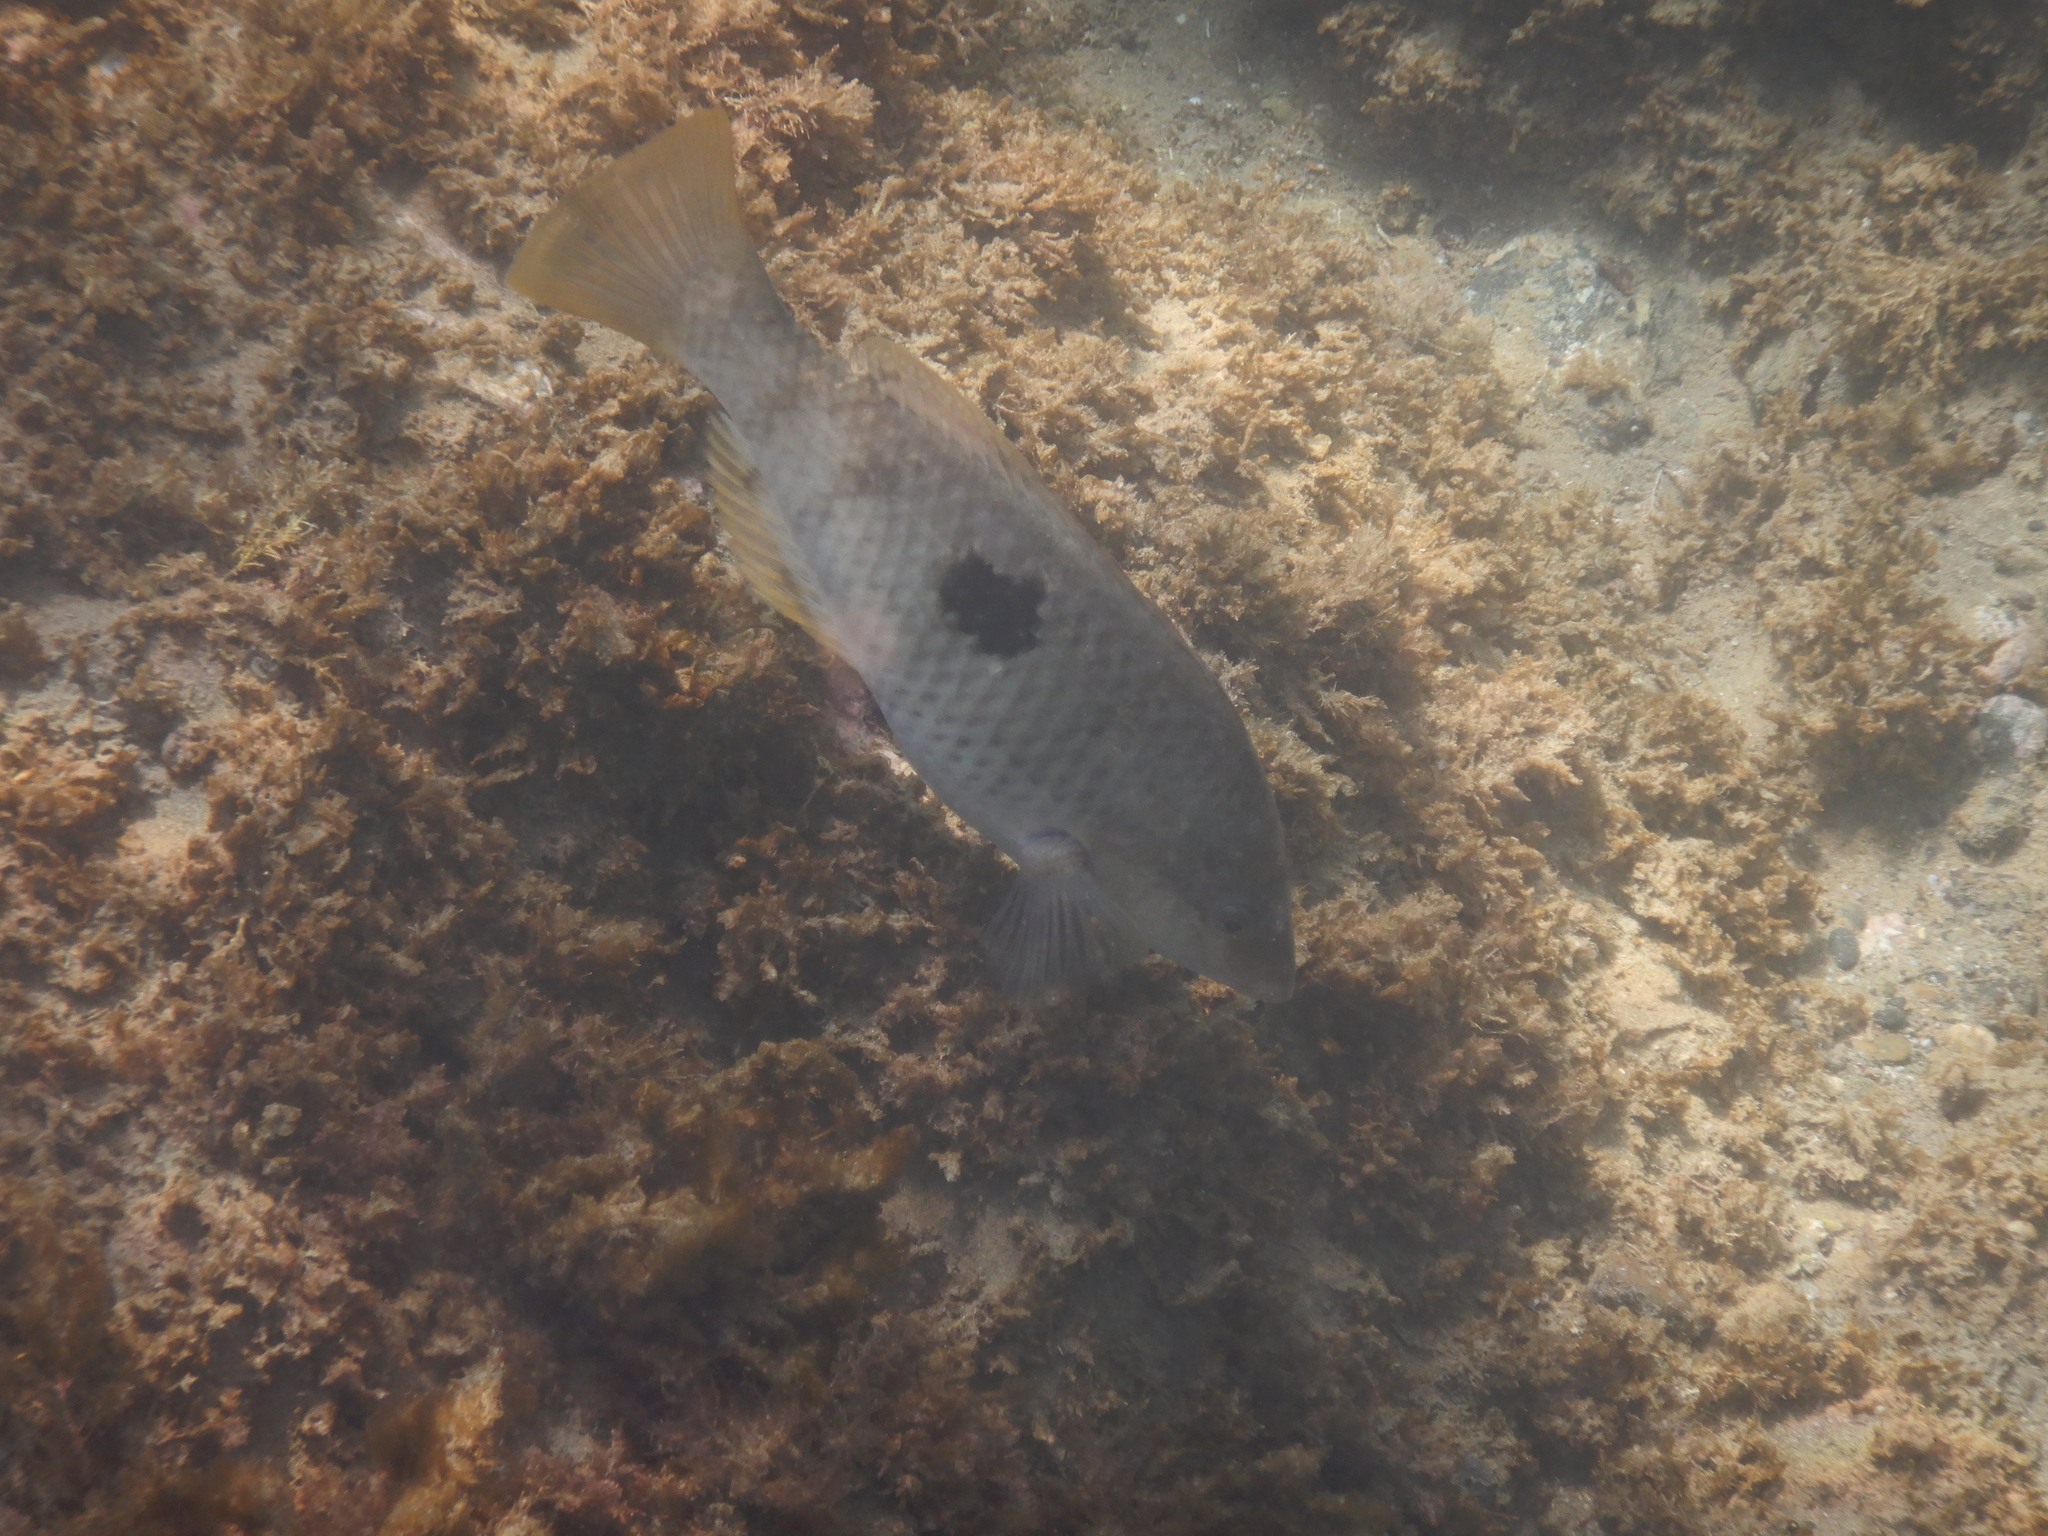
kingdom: Animalia
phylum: Chordata
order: Perciformes
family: Labridae
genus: Notolabrus
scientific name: Notolabrus celidotus
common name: Spotty
